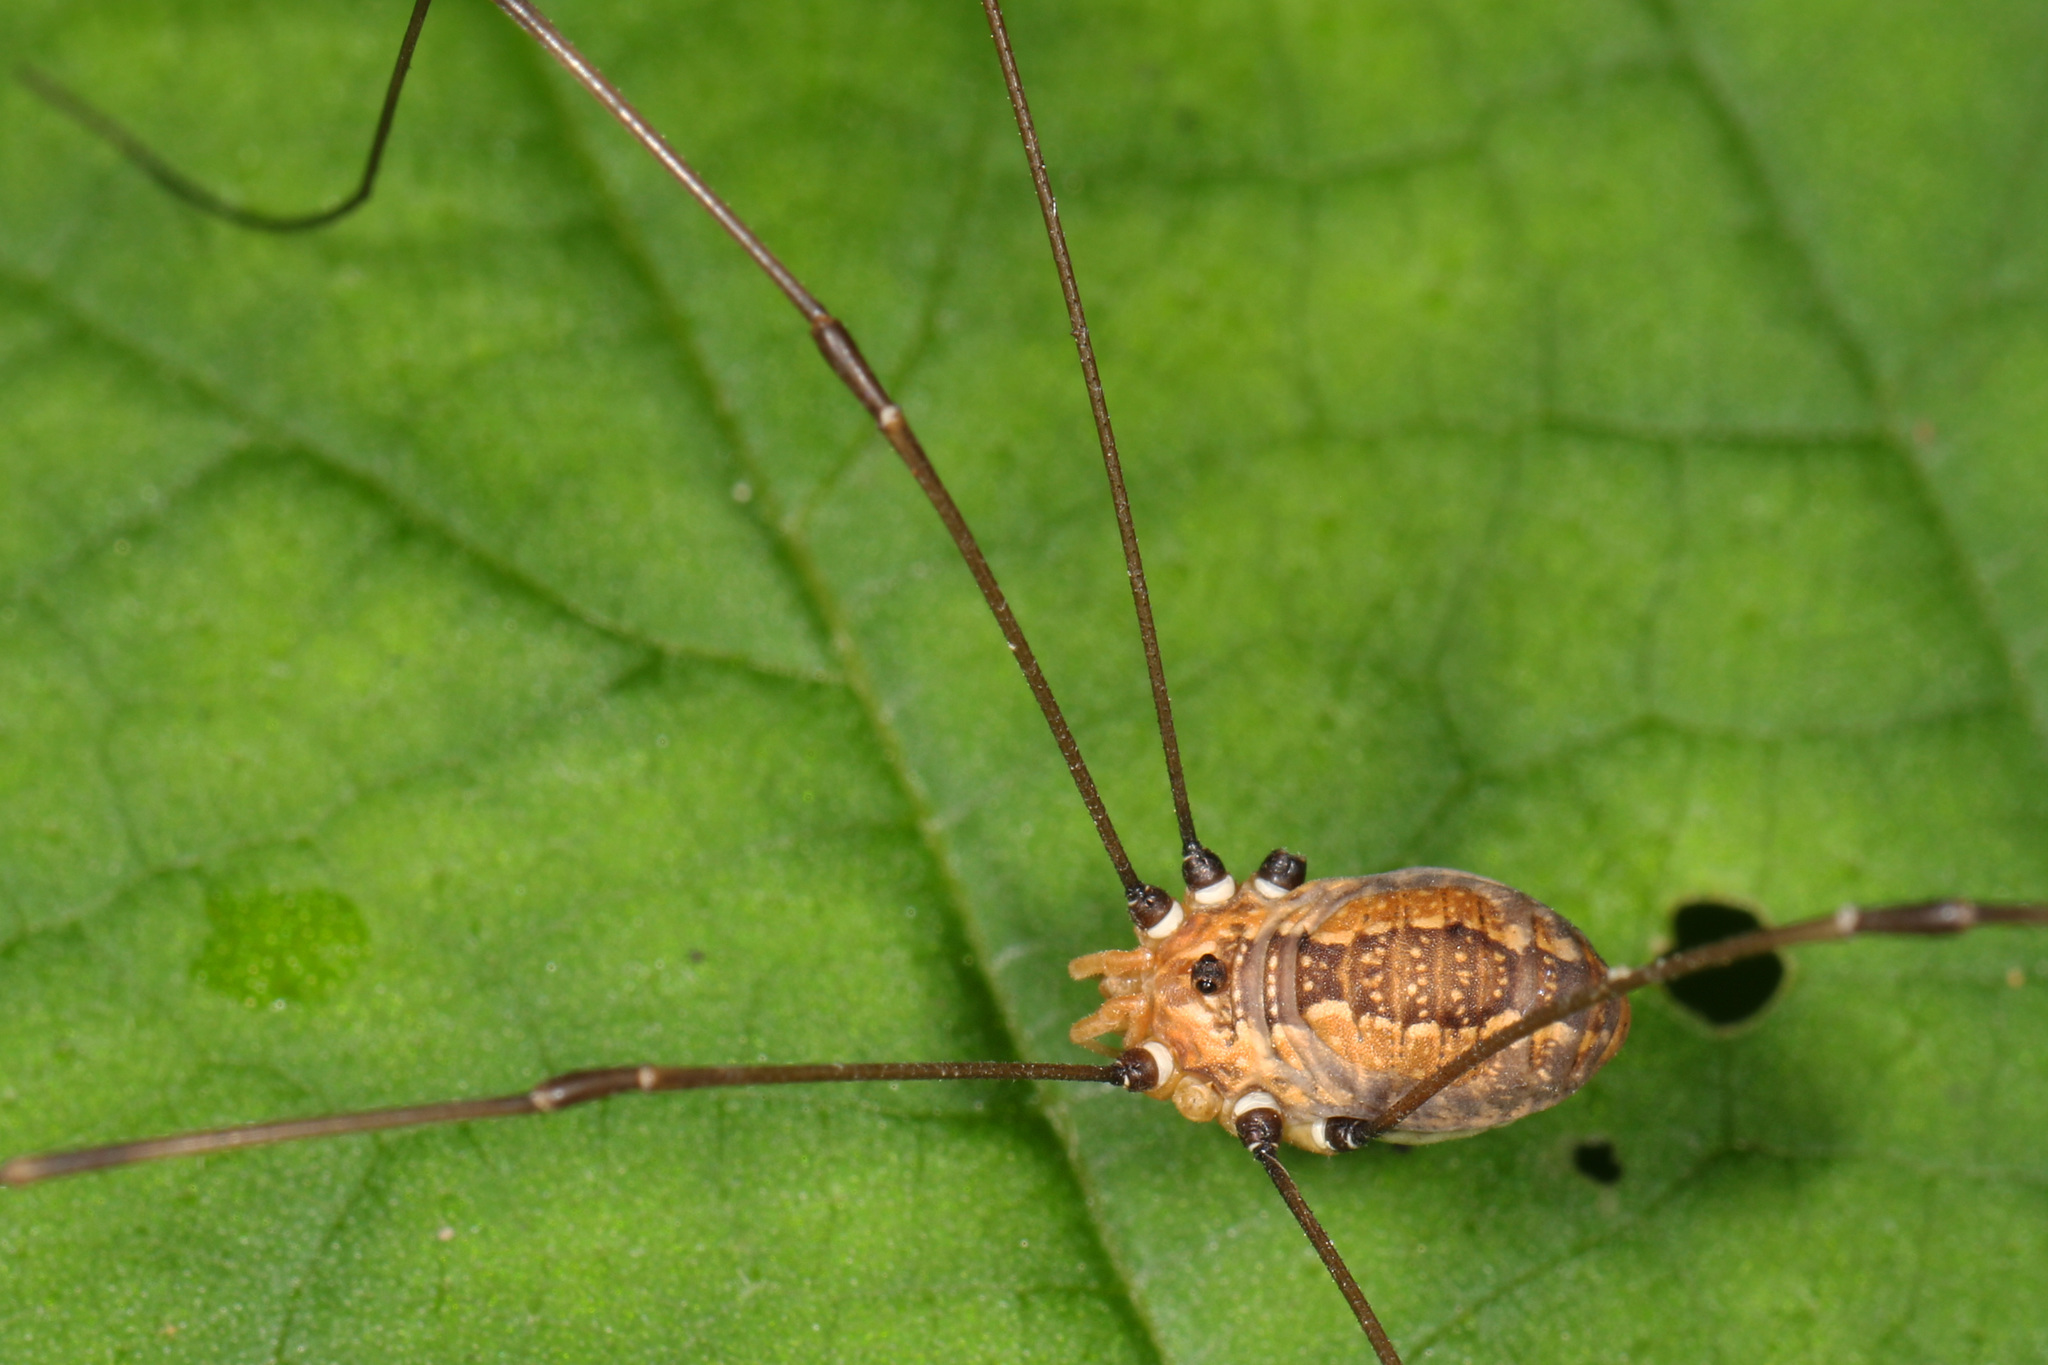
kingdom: Animalia
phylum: Arthropoda
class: Arachnida
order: Opiliones
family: Sclerosomatidae
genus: Leiobunum
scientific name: Leiobunum vittatum
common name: Eastern harvestman
